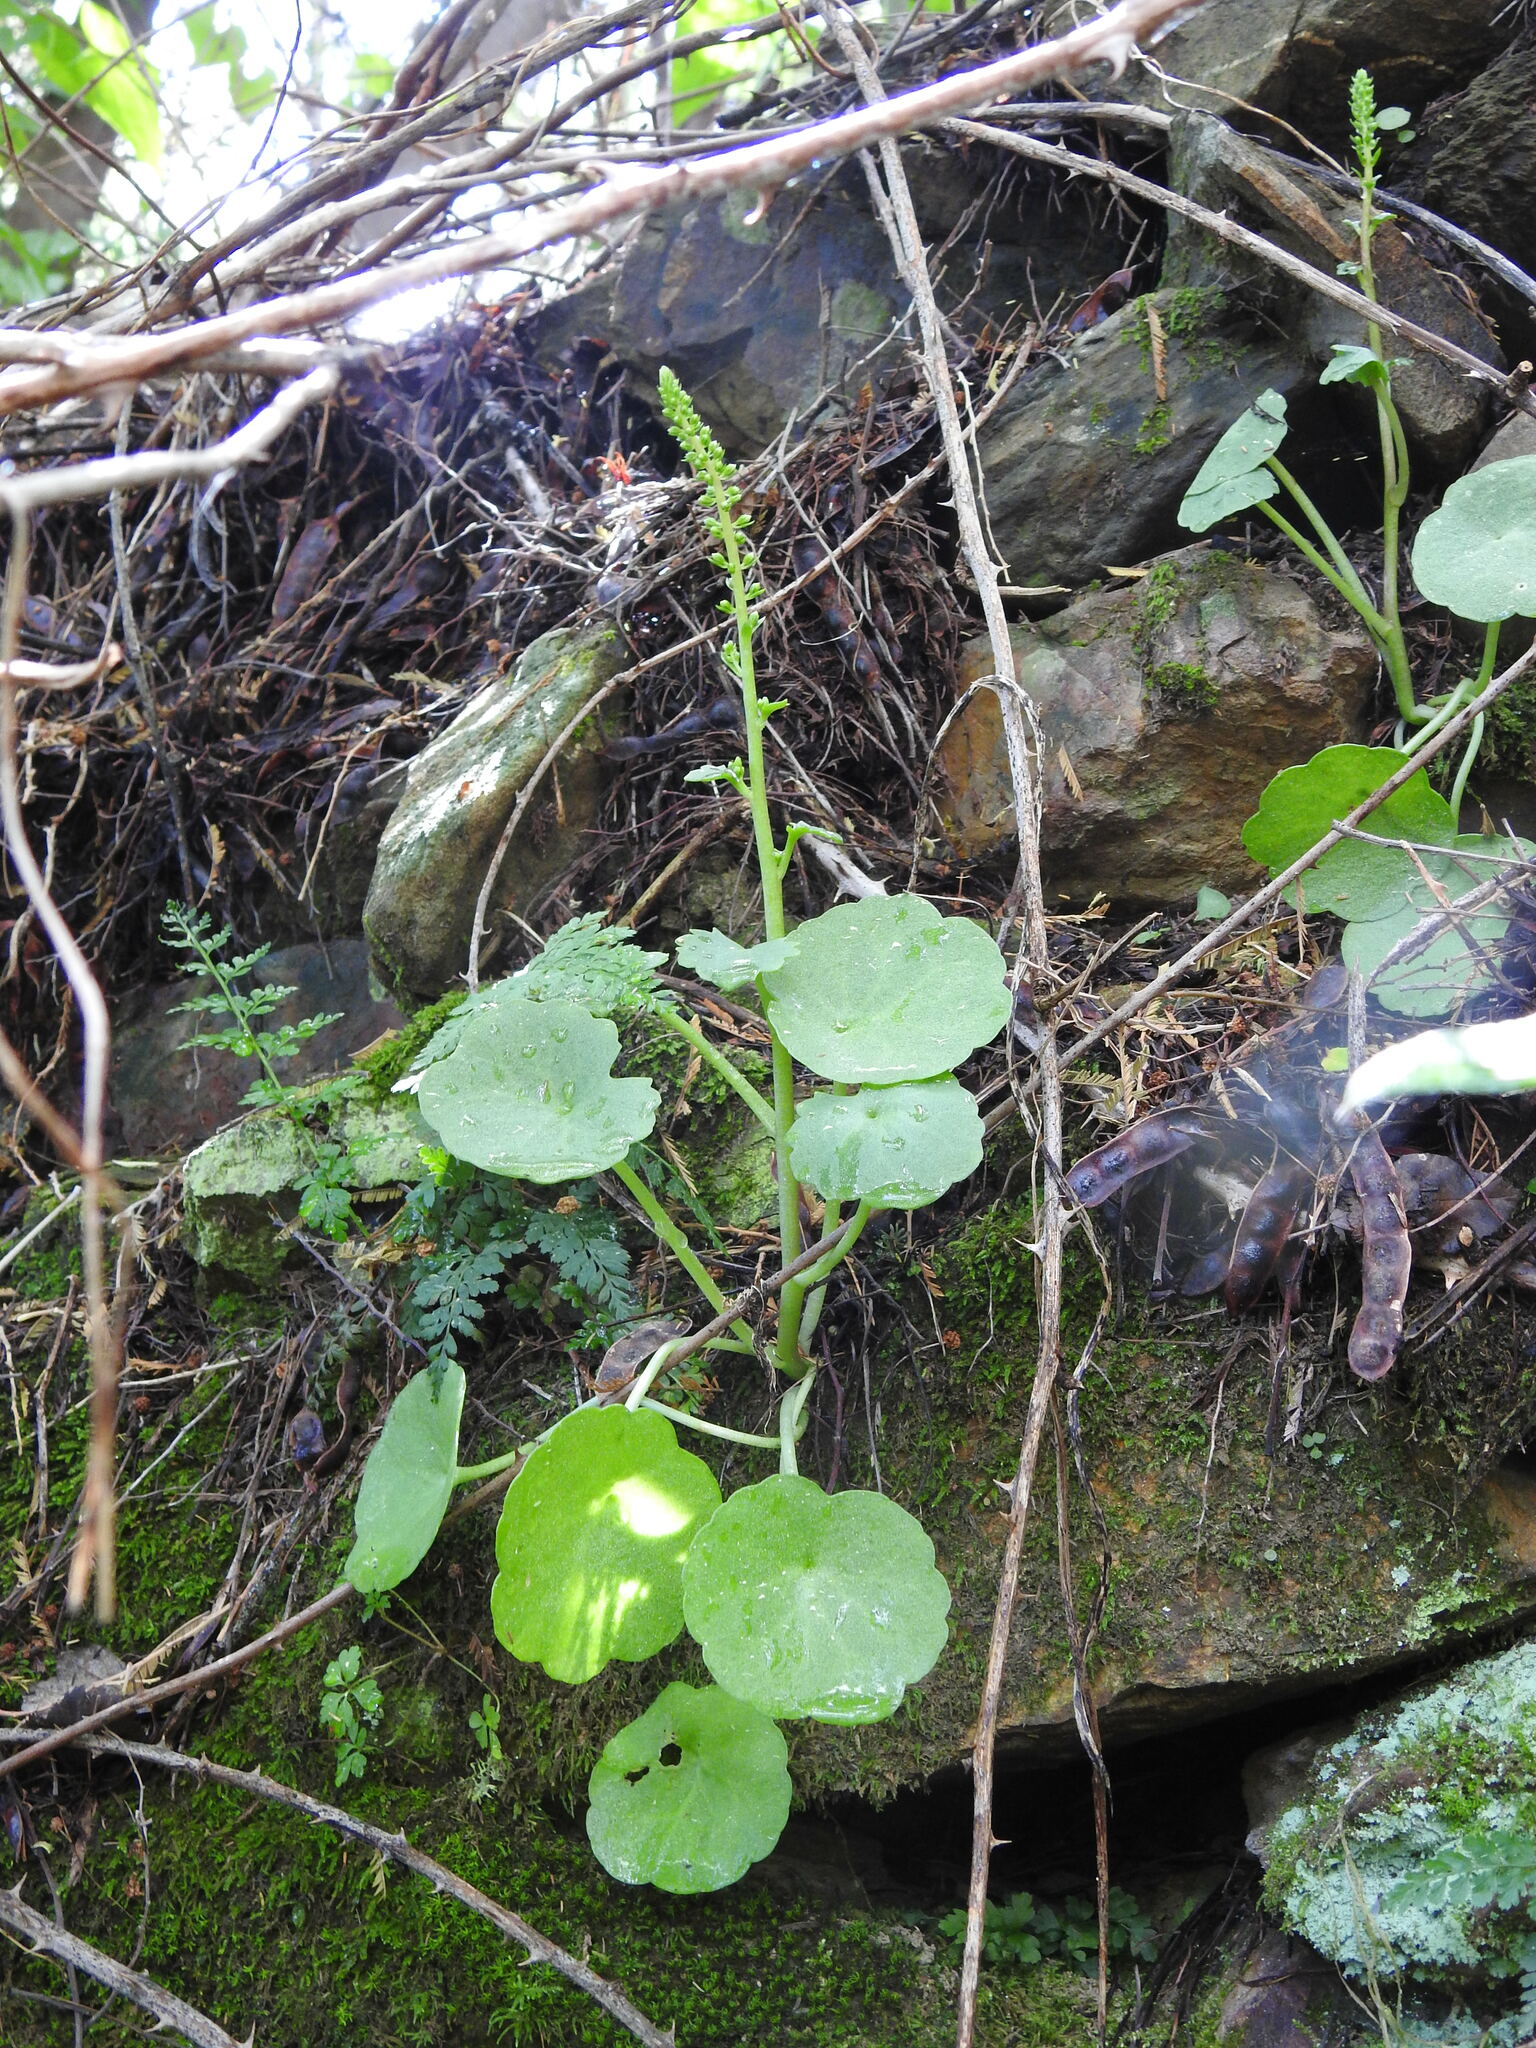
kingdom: Plantae
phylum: Tracheophyta
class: Magnoliopsida
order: Saxifragales
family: Crassulaceae
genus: Umbilicus
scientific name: Umbilicus rupestris
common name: Navelwort
